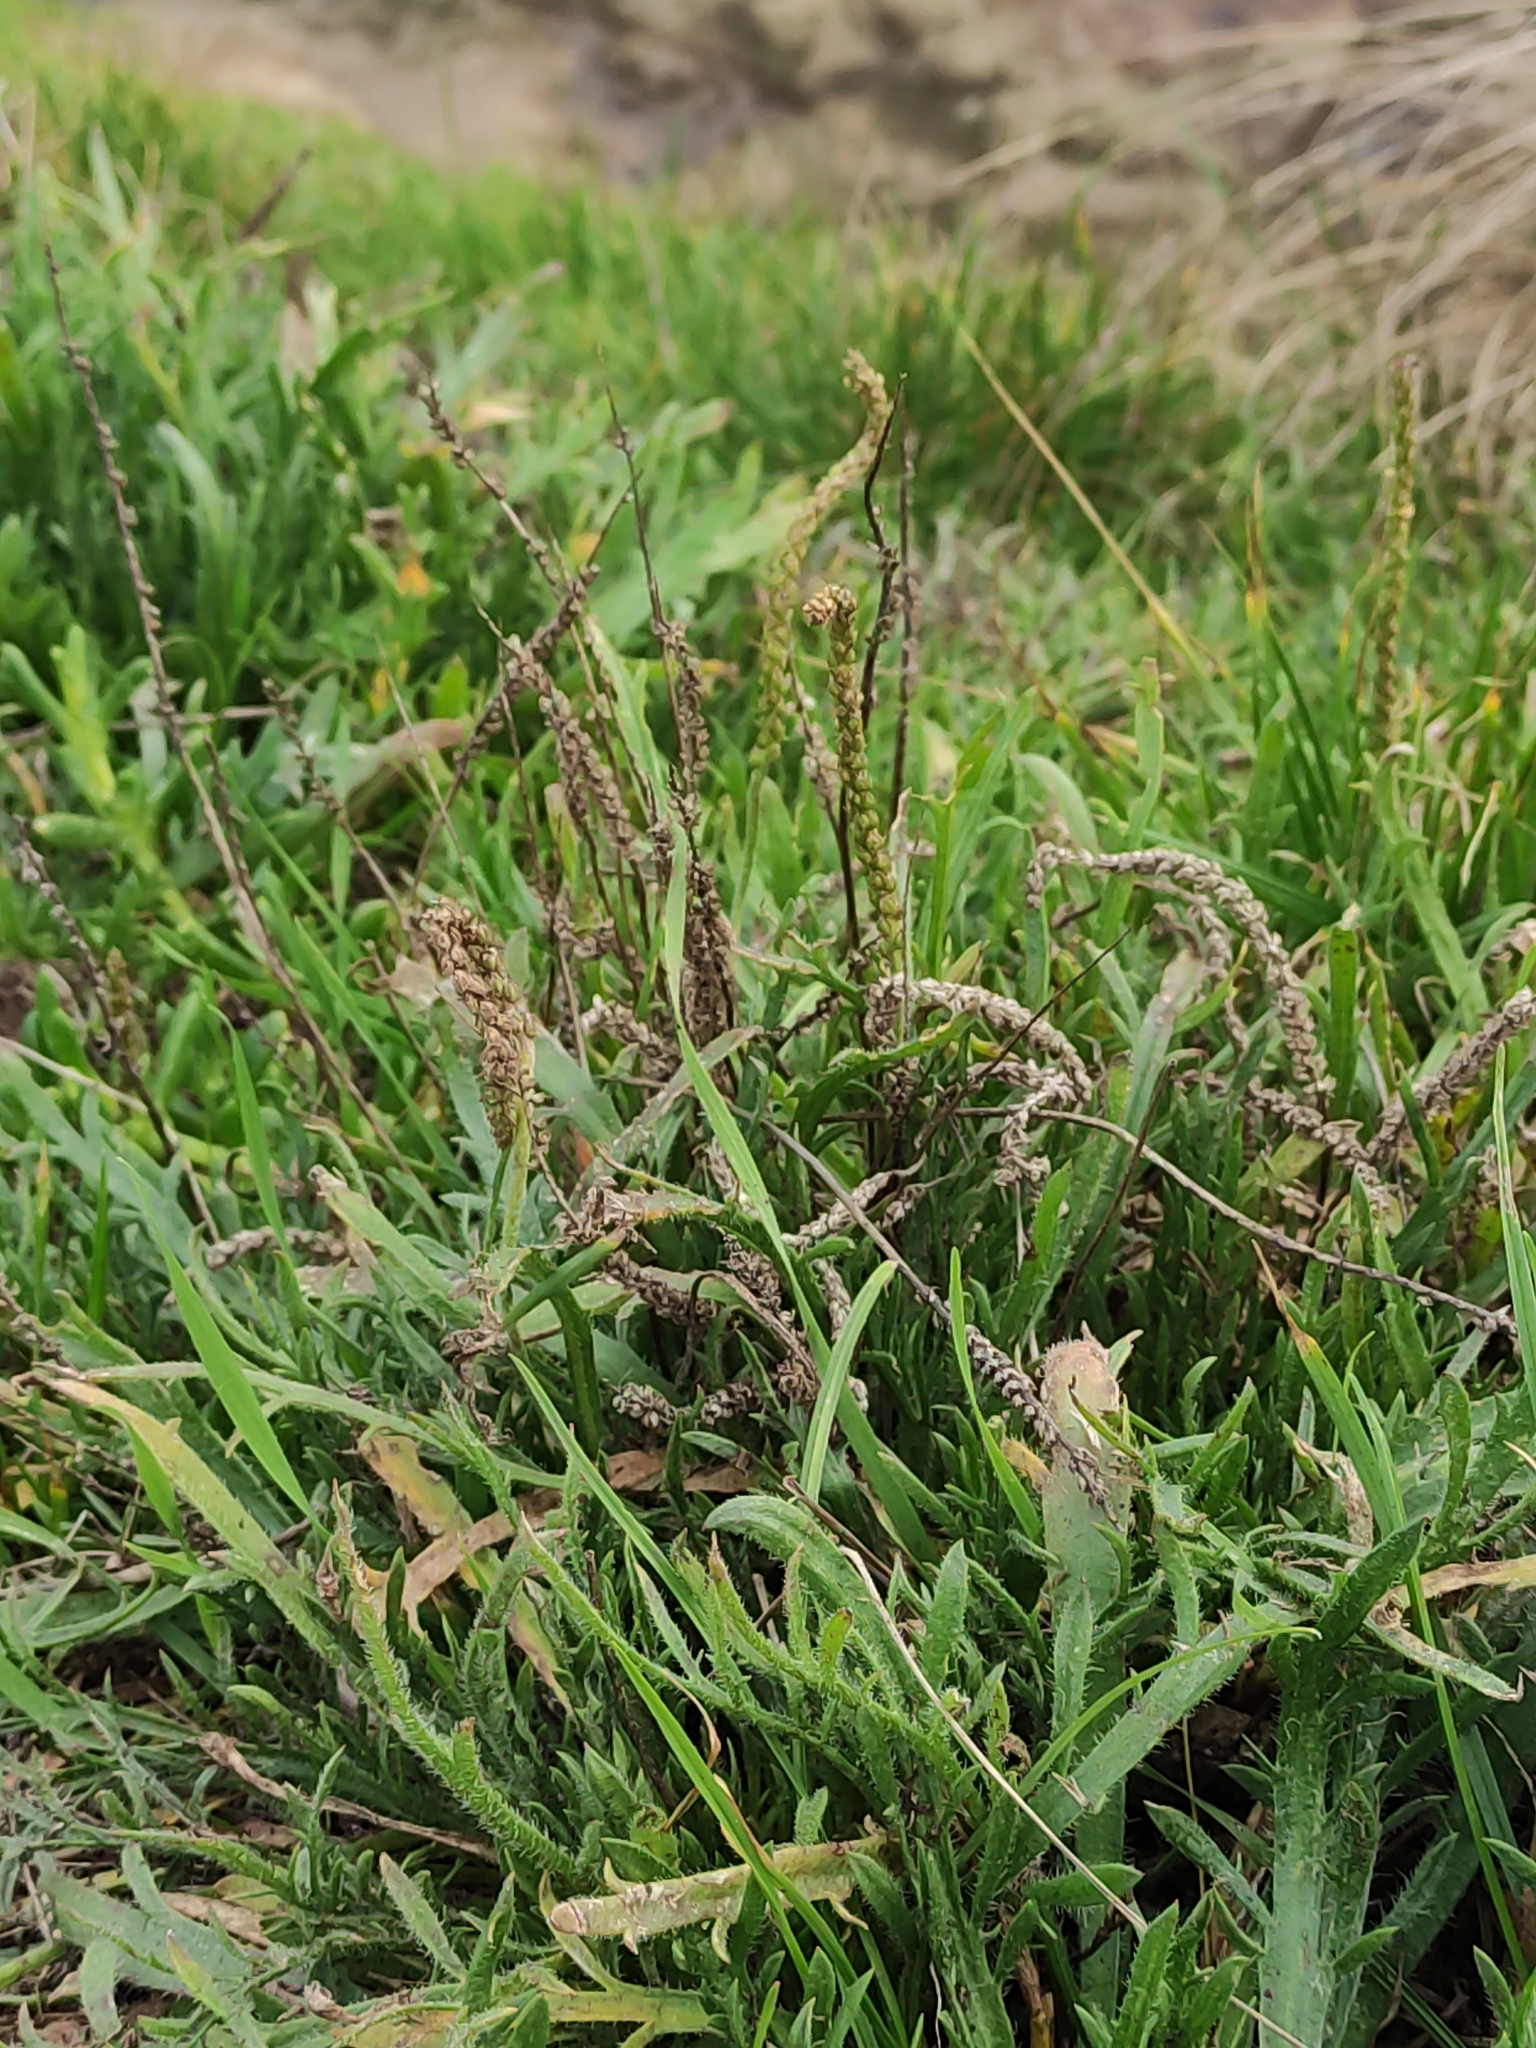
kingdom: Plantae
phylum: Tracheophyta
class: Magnoliopsida
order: Lamiales
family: Plantaginaceae
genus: Plantago
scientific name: Plantago coronopus
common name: Buck's-horn plantain
